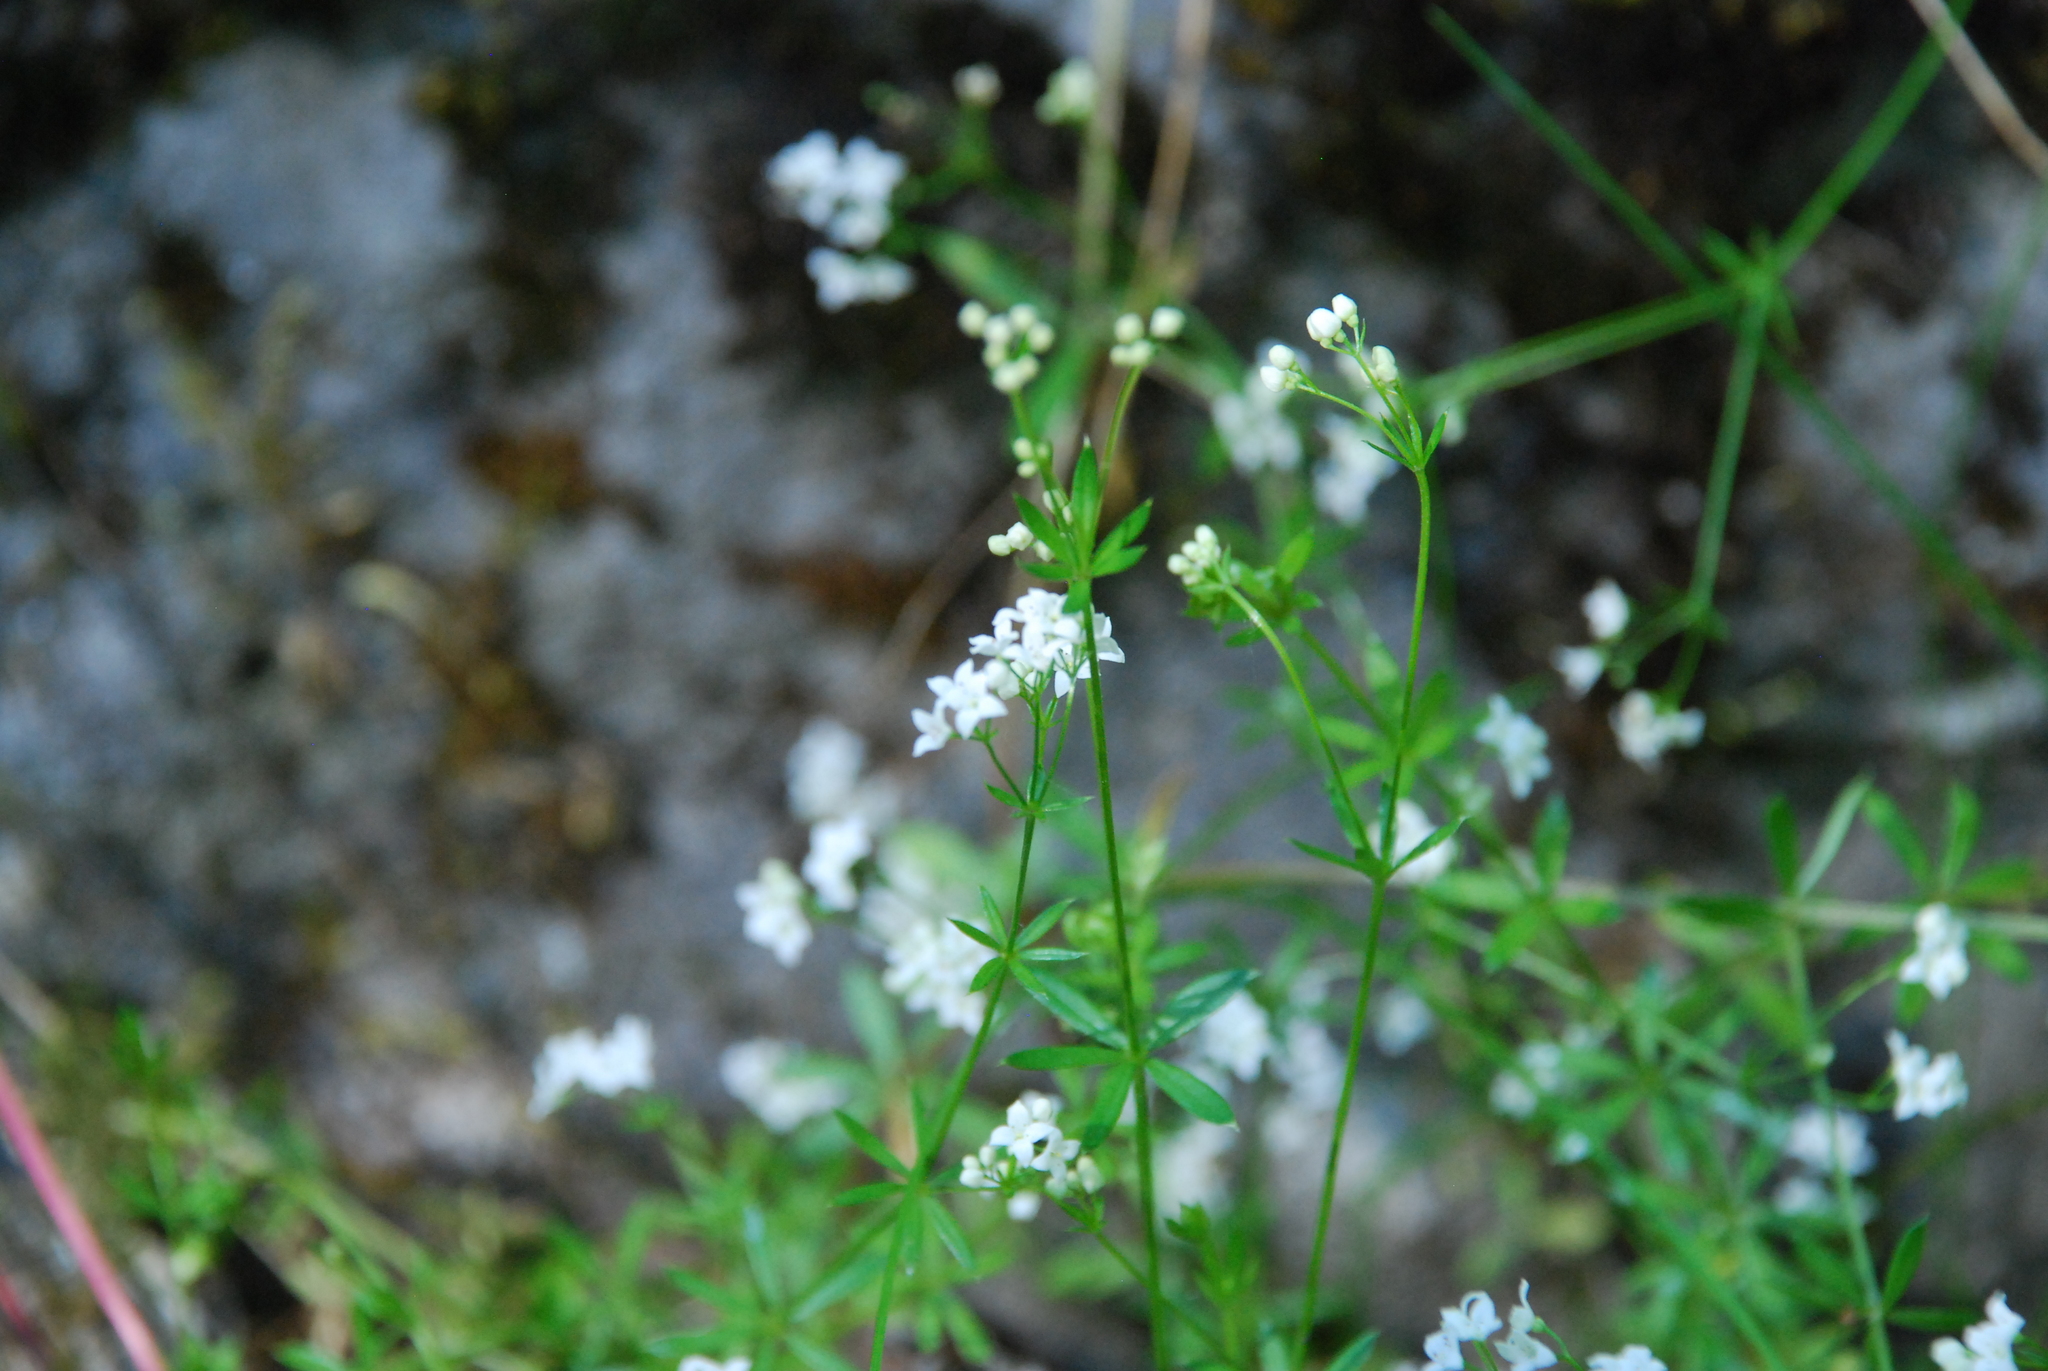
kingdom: Plantae
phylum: Tracheophyta
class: Magnoliopsida
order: Gentianales
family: Rubiaceae
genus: Galium
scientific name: Galium uliginosum
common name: Fen bedstraw
